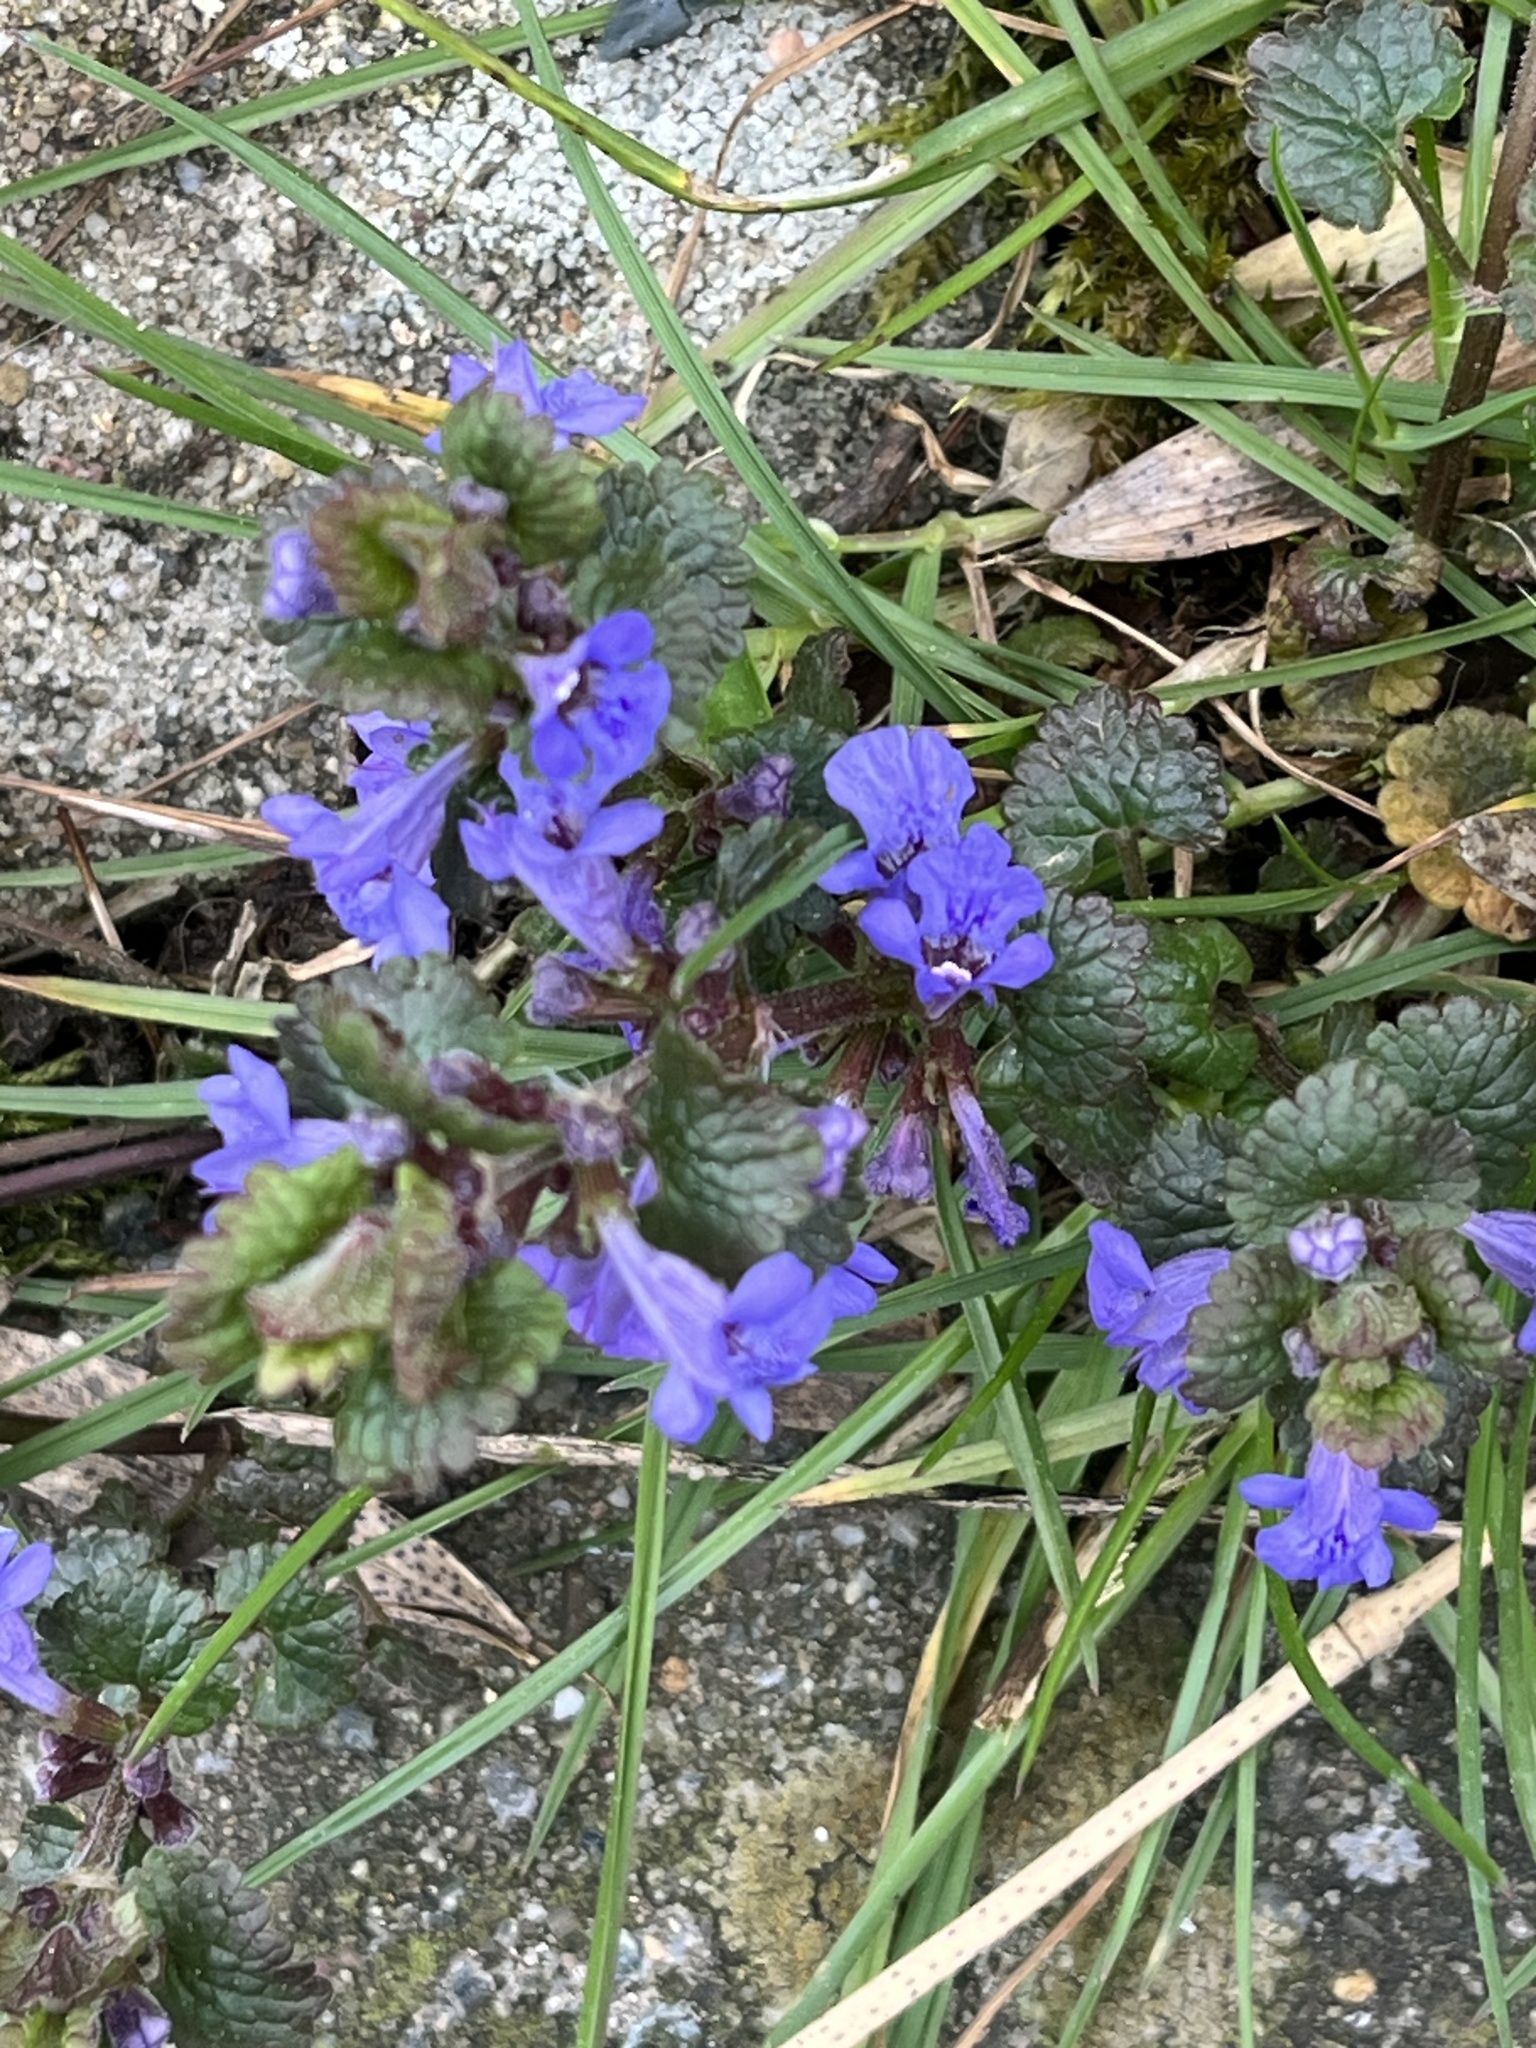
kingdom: Plantae
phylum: Tracheophyta
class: Magnoliopsida
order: Lamiales
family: Lamiaceae
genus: Glechoma
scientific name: Glechoma hederacea
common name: Ground ivy
